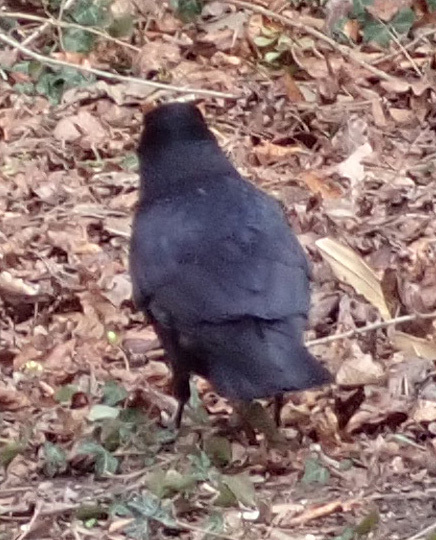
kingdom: Animalia
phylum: Chordata
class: Aves
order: Passeriformes
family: Corvidae
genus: Corvus
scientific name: Corvus corone
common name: Carrion crow
